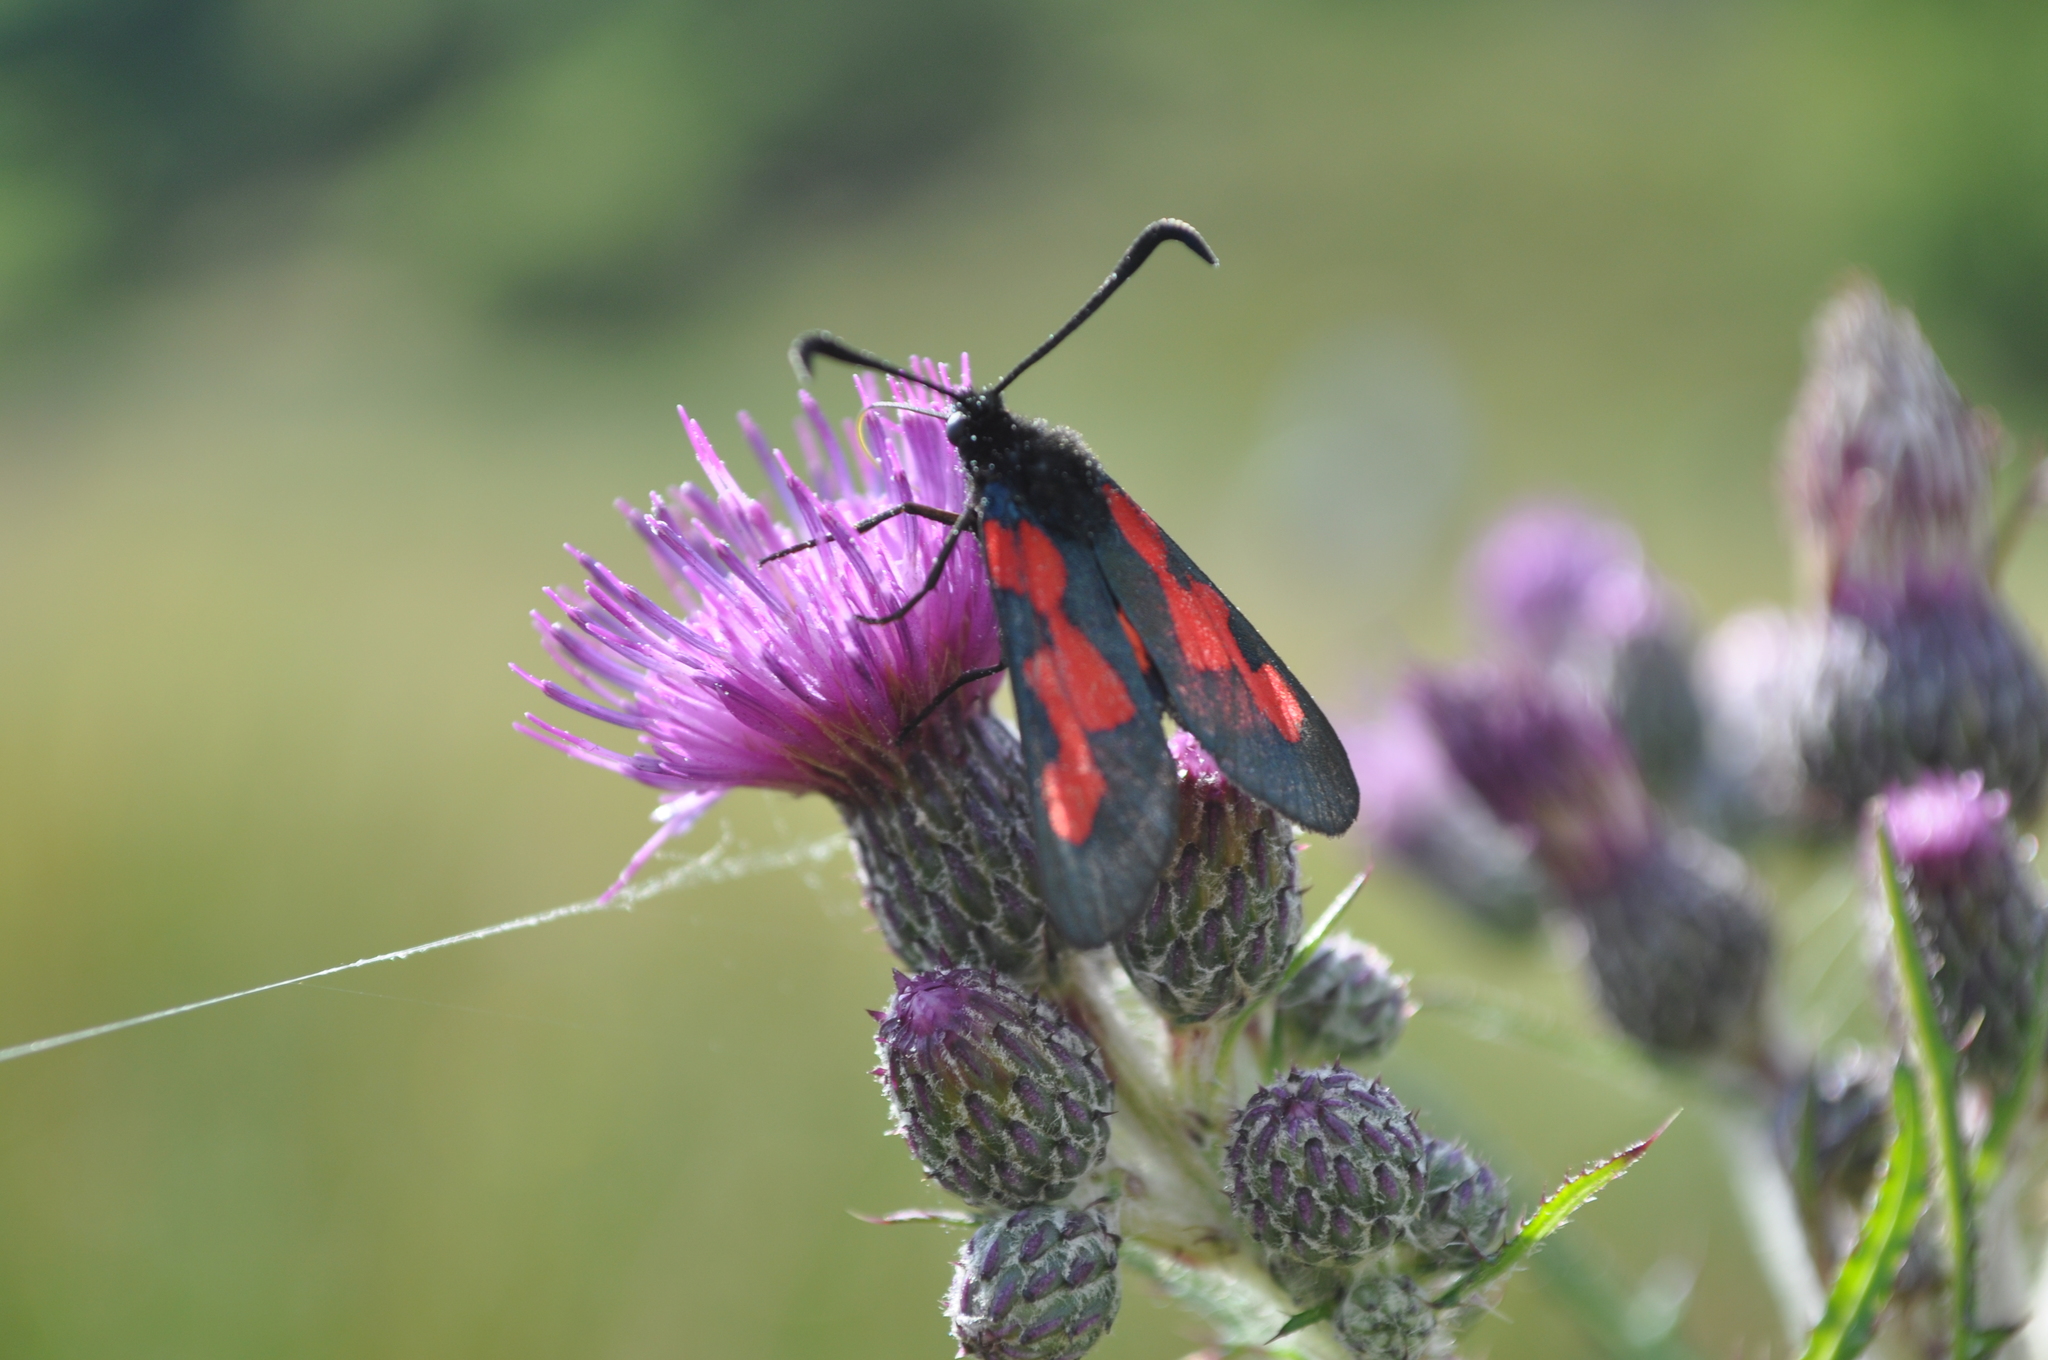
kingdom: Animalia
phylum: Arthropoda
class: Insecta
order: Lepidoptera
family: Zygaenidae
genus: Zygaena
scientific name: Zygaena trifolii
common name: Five-spot burnet
